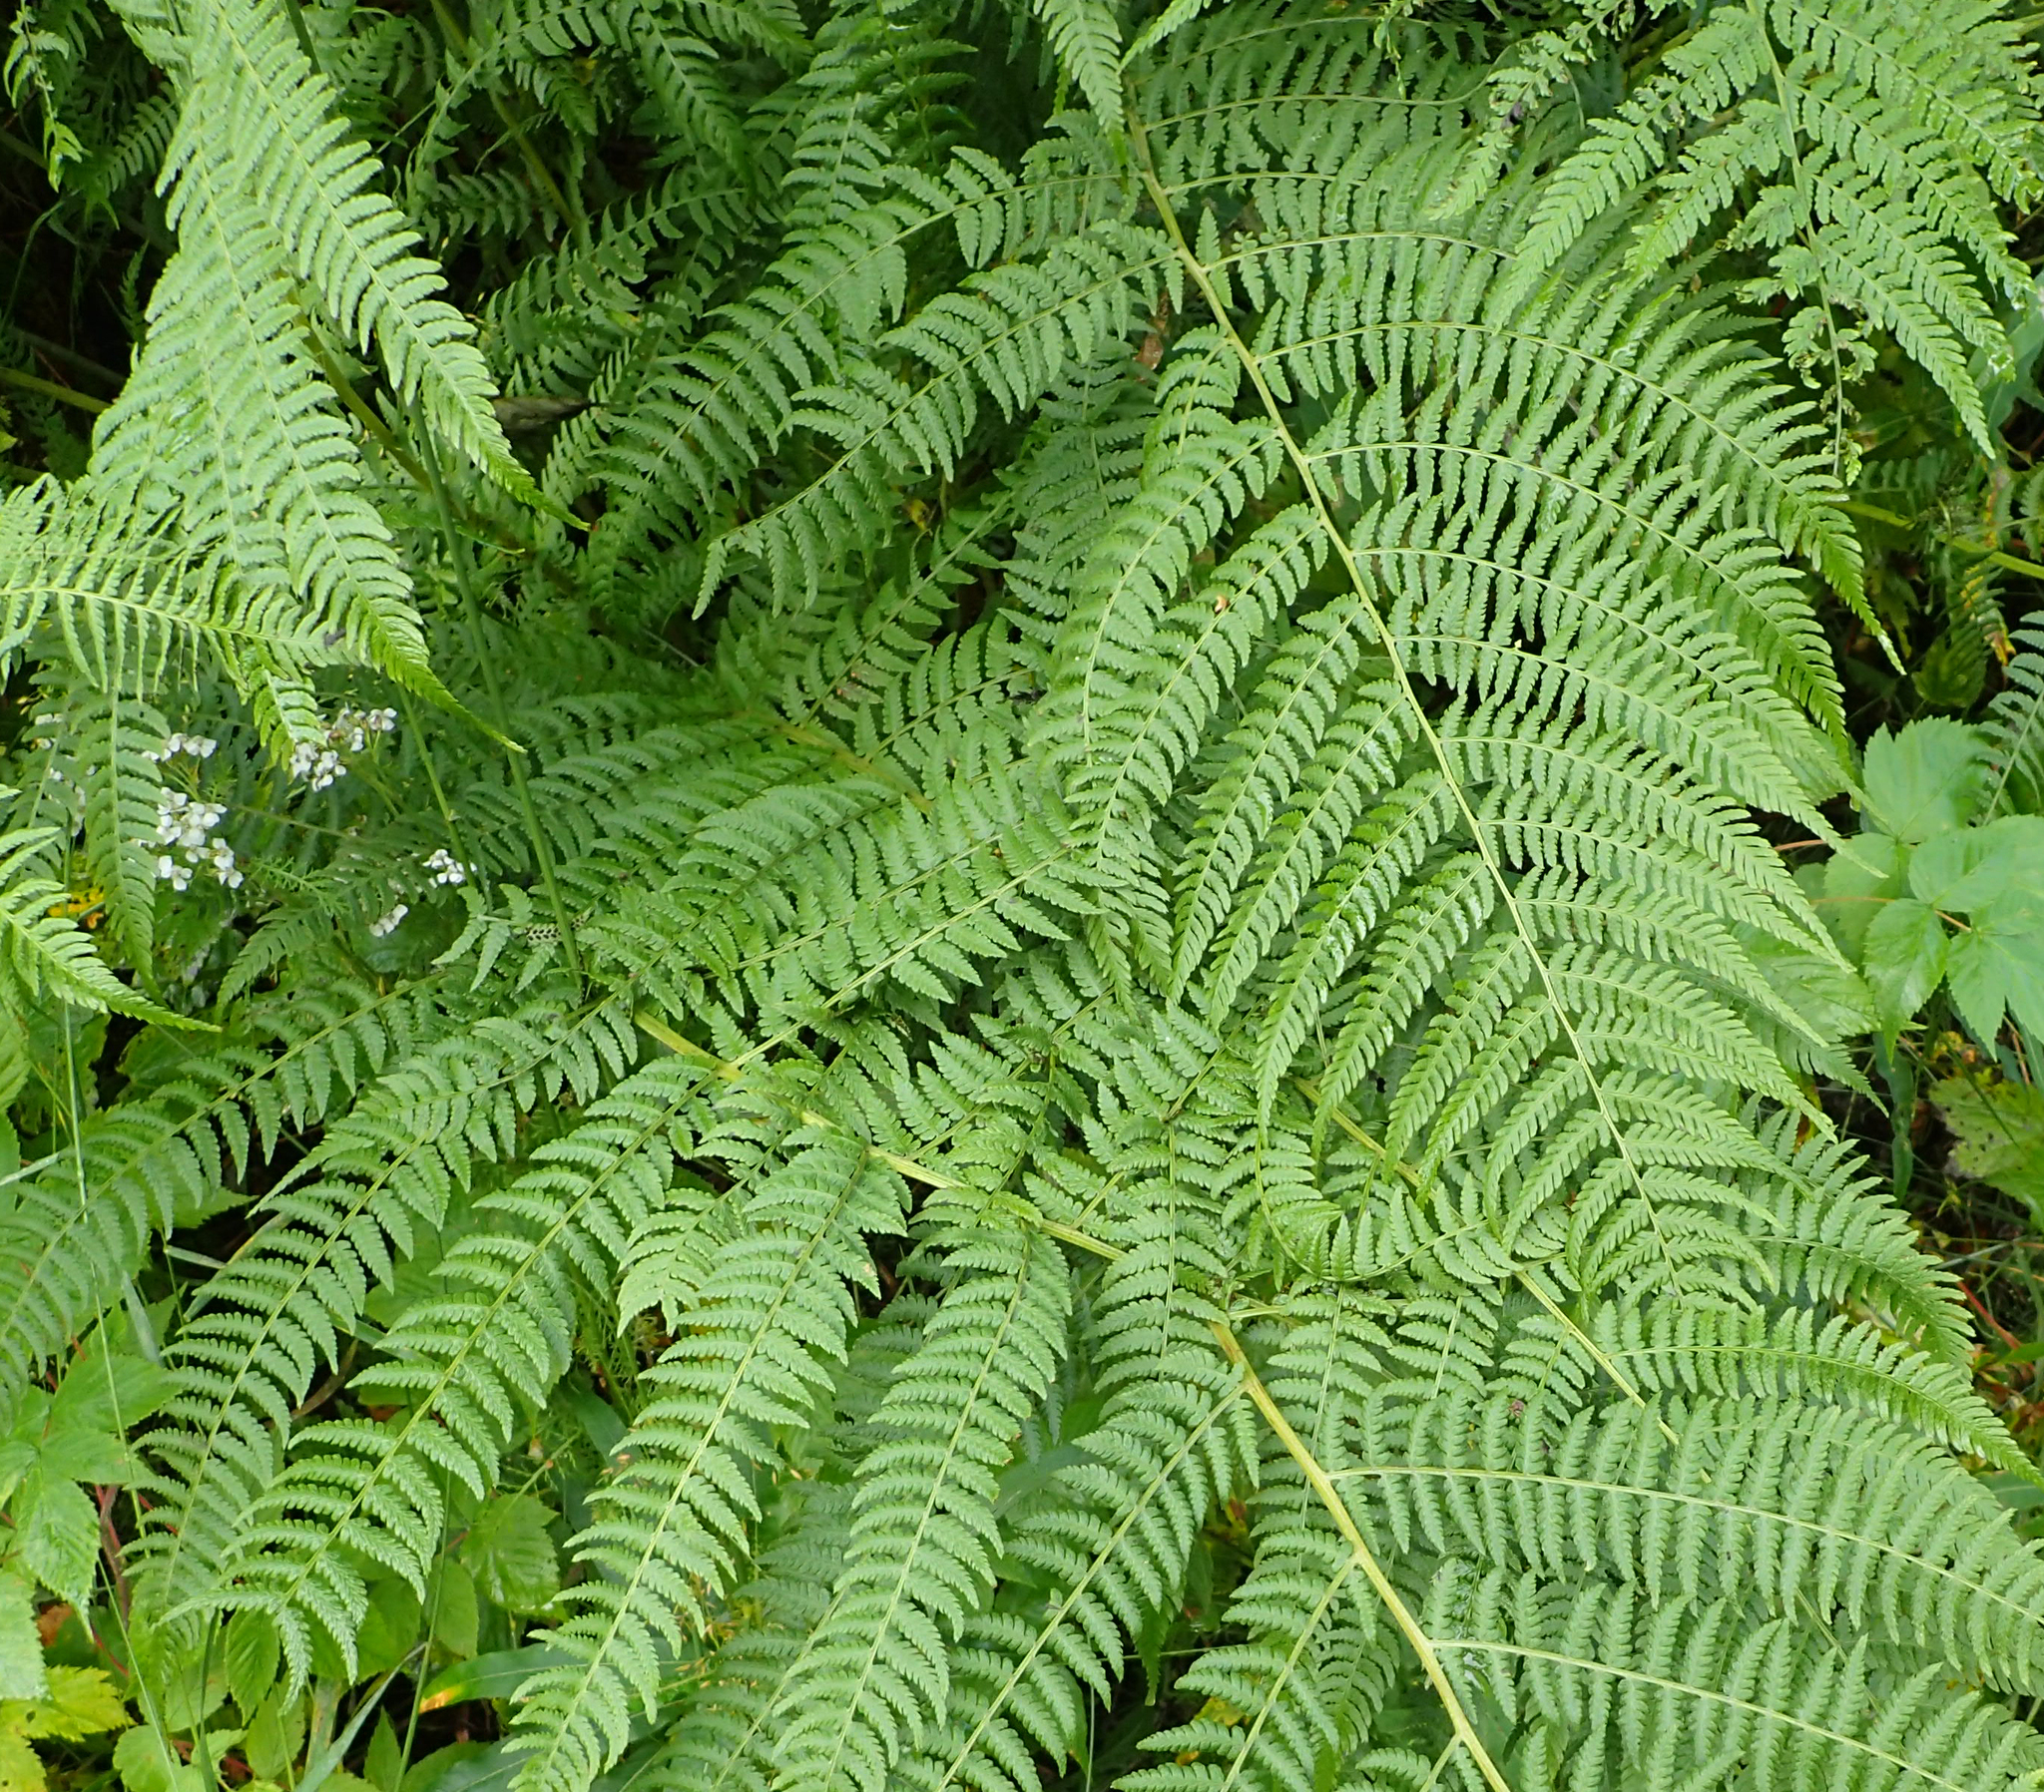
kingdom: Plantae
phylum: Tracheophyta
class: Polypodiopsida
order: Polypodiales
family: Athyriaceae
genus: Athyrium
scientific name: Athyrium filix-femina
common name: Lady fern
